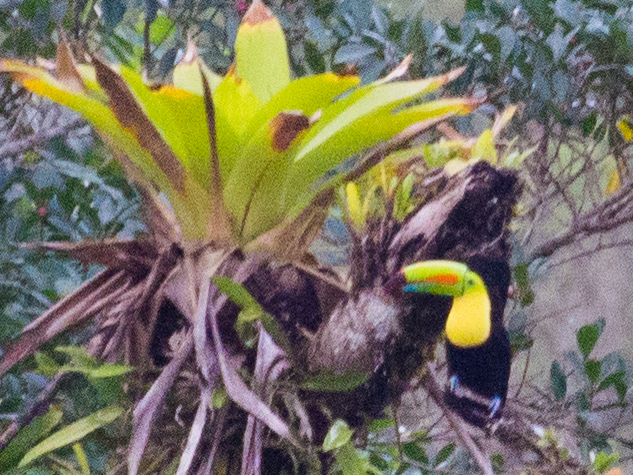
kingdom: Animalia
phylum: Chordata
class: Aves
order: Piciformes
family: Ramphastidae
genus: Ramphastos
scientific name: Ramphastos sulfuratus
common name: Keel-billed toucan
